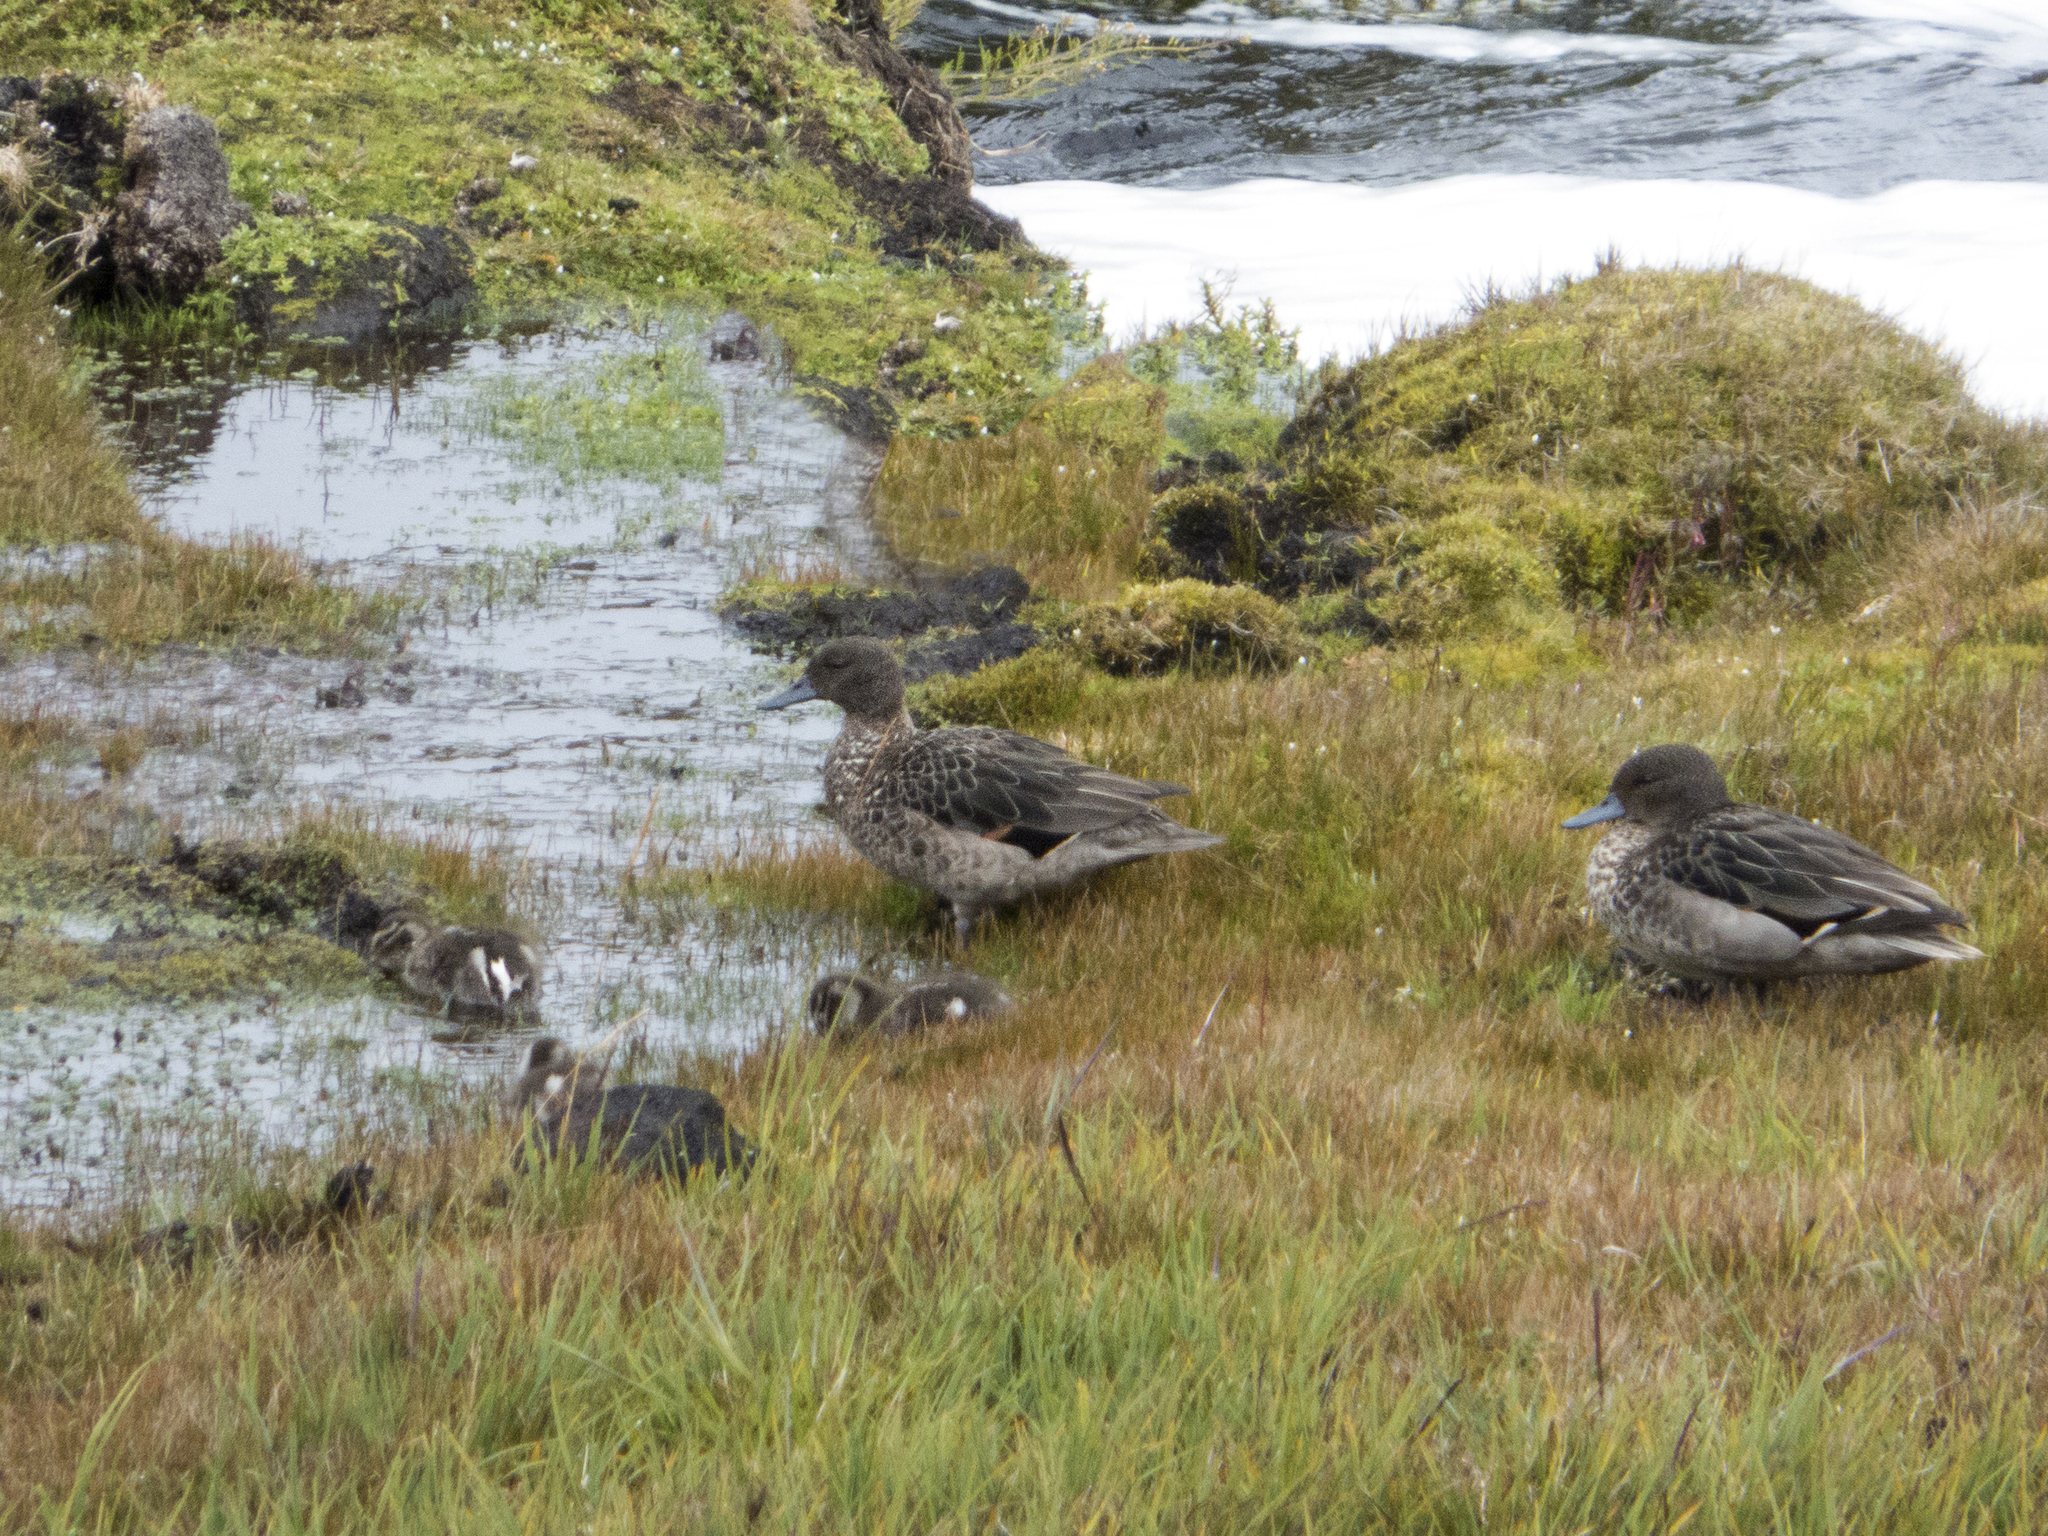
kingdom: Animalia
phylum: Chordata
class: Aves
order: Anseriformes
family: Anatidae
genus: Anas
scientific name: Anas andium
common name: Andean teal
